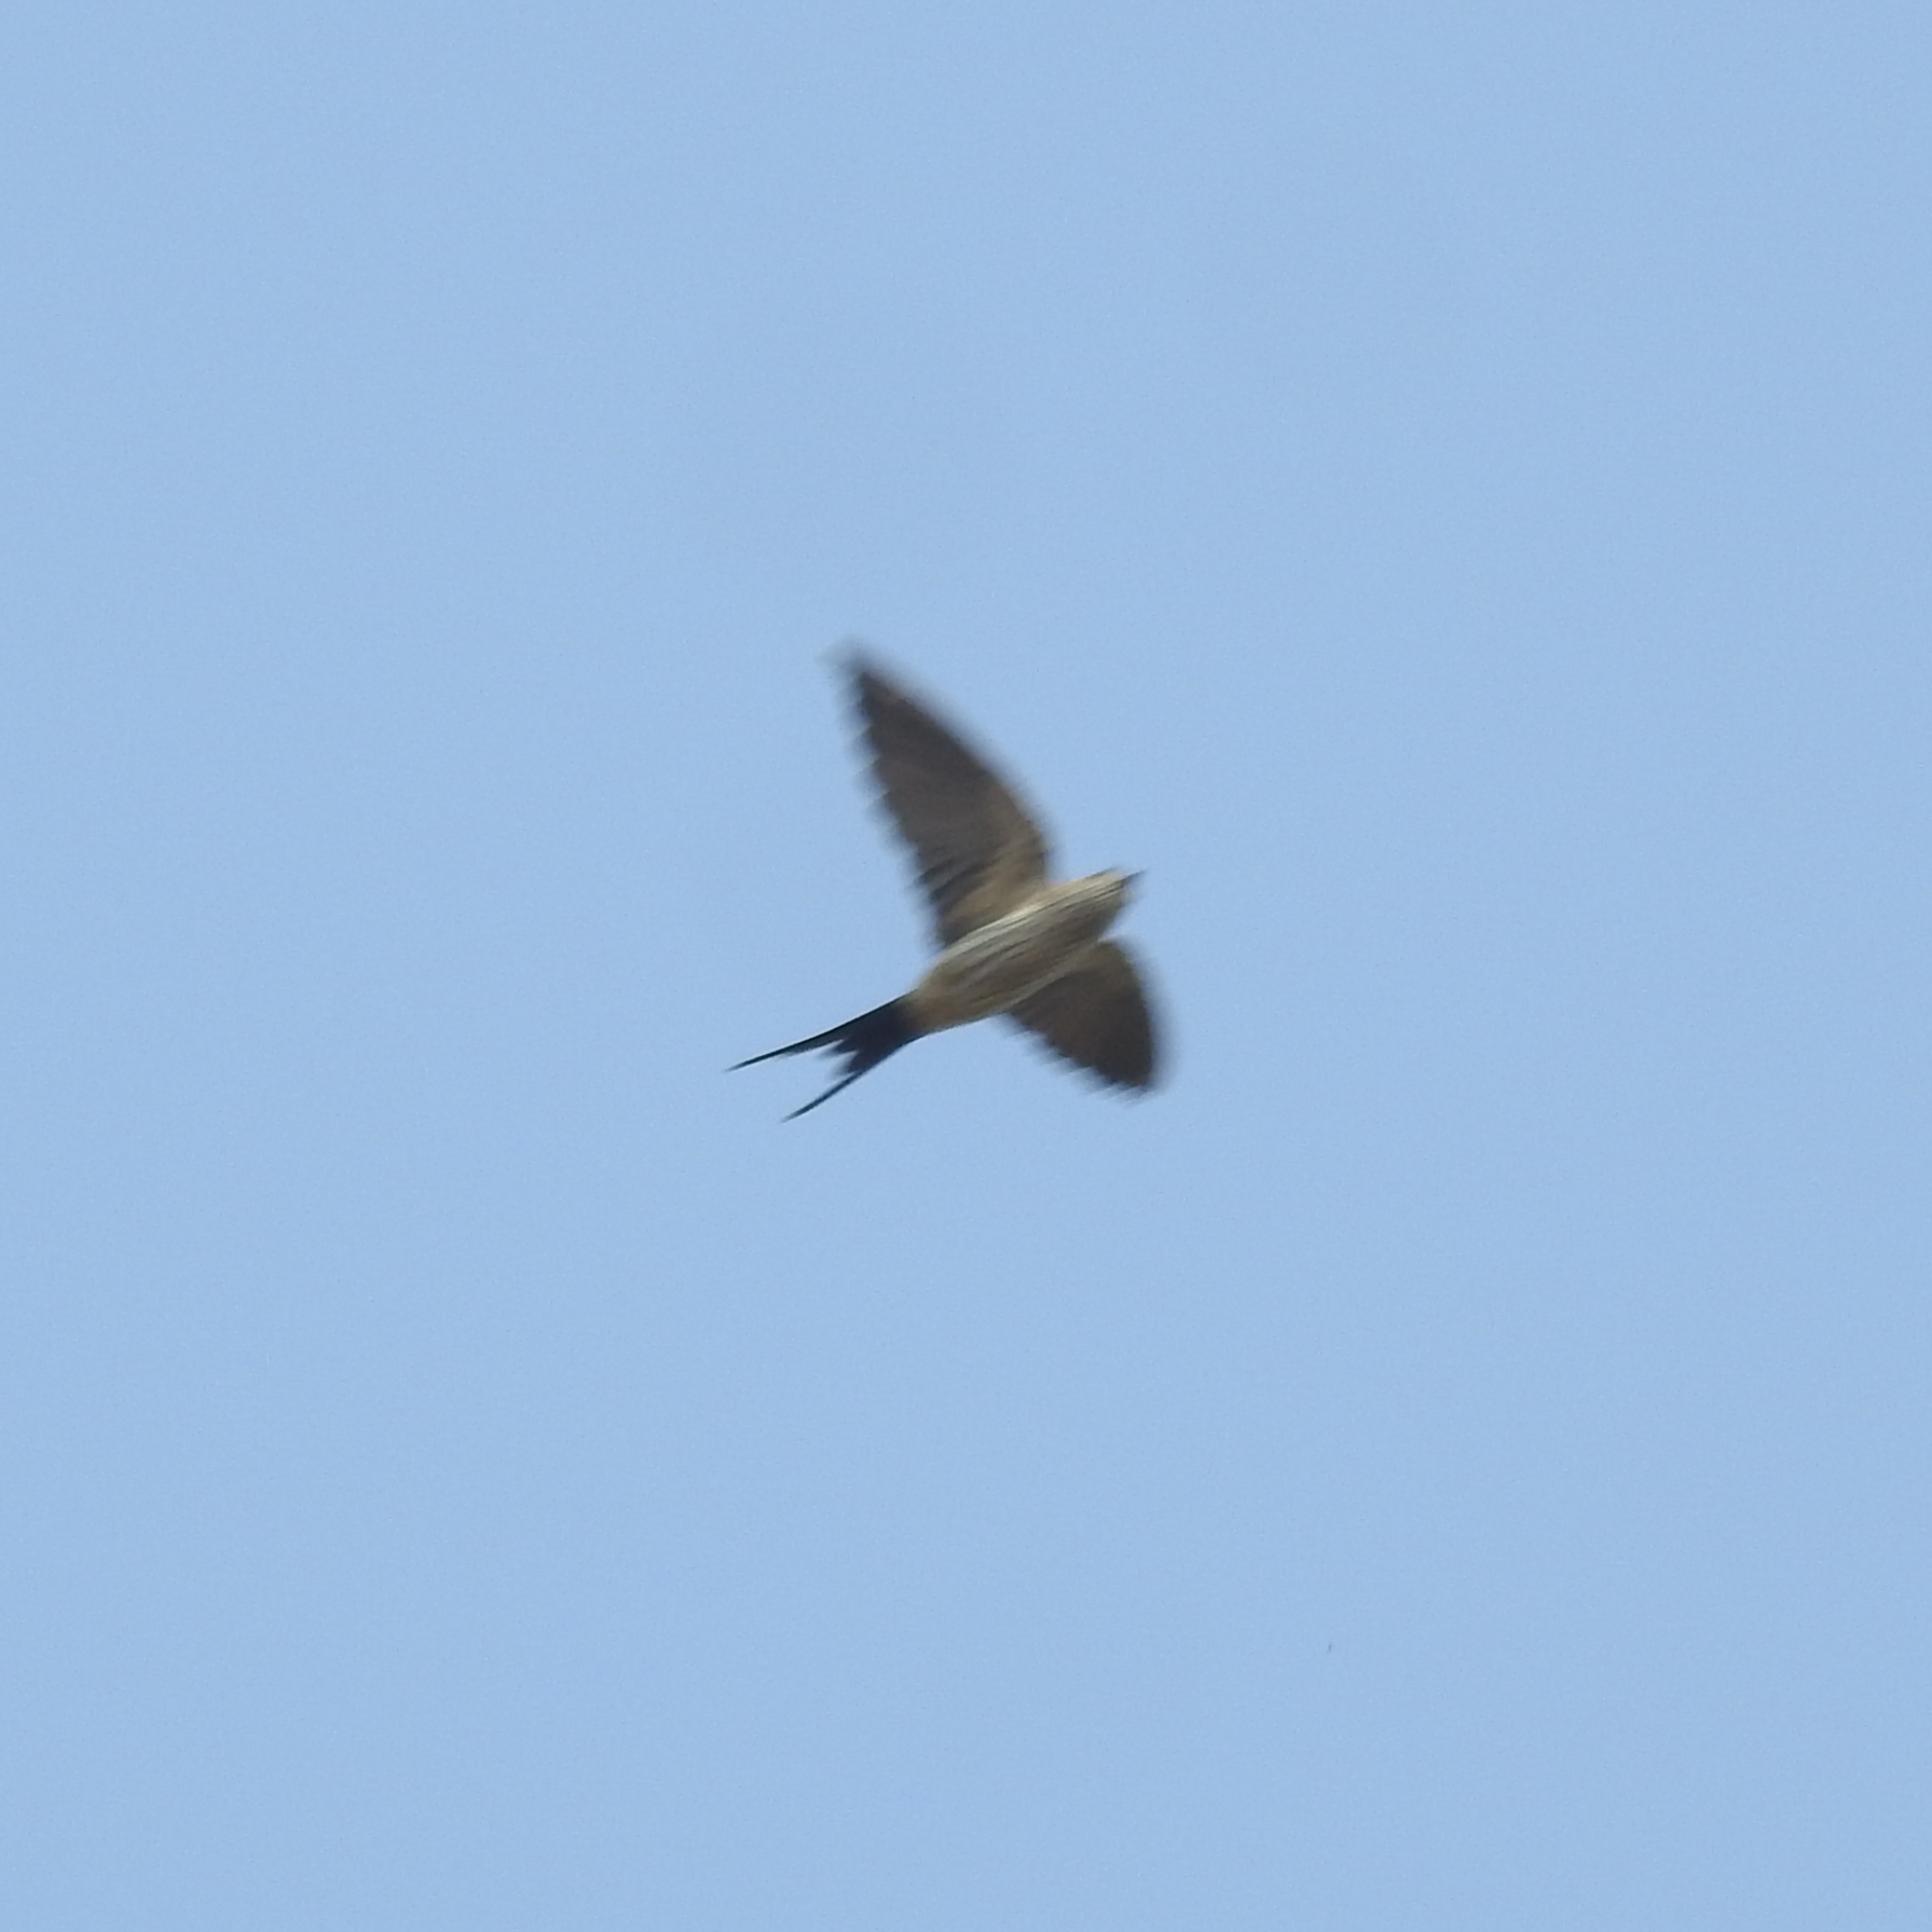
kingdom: Animalia
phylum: Chordata
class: Aves
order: Passeriformes
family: Hirundinidae
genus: Cecropis
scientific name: Cecropis daurica
